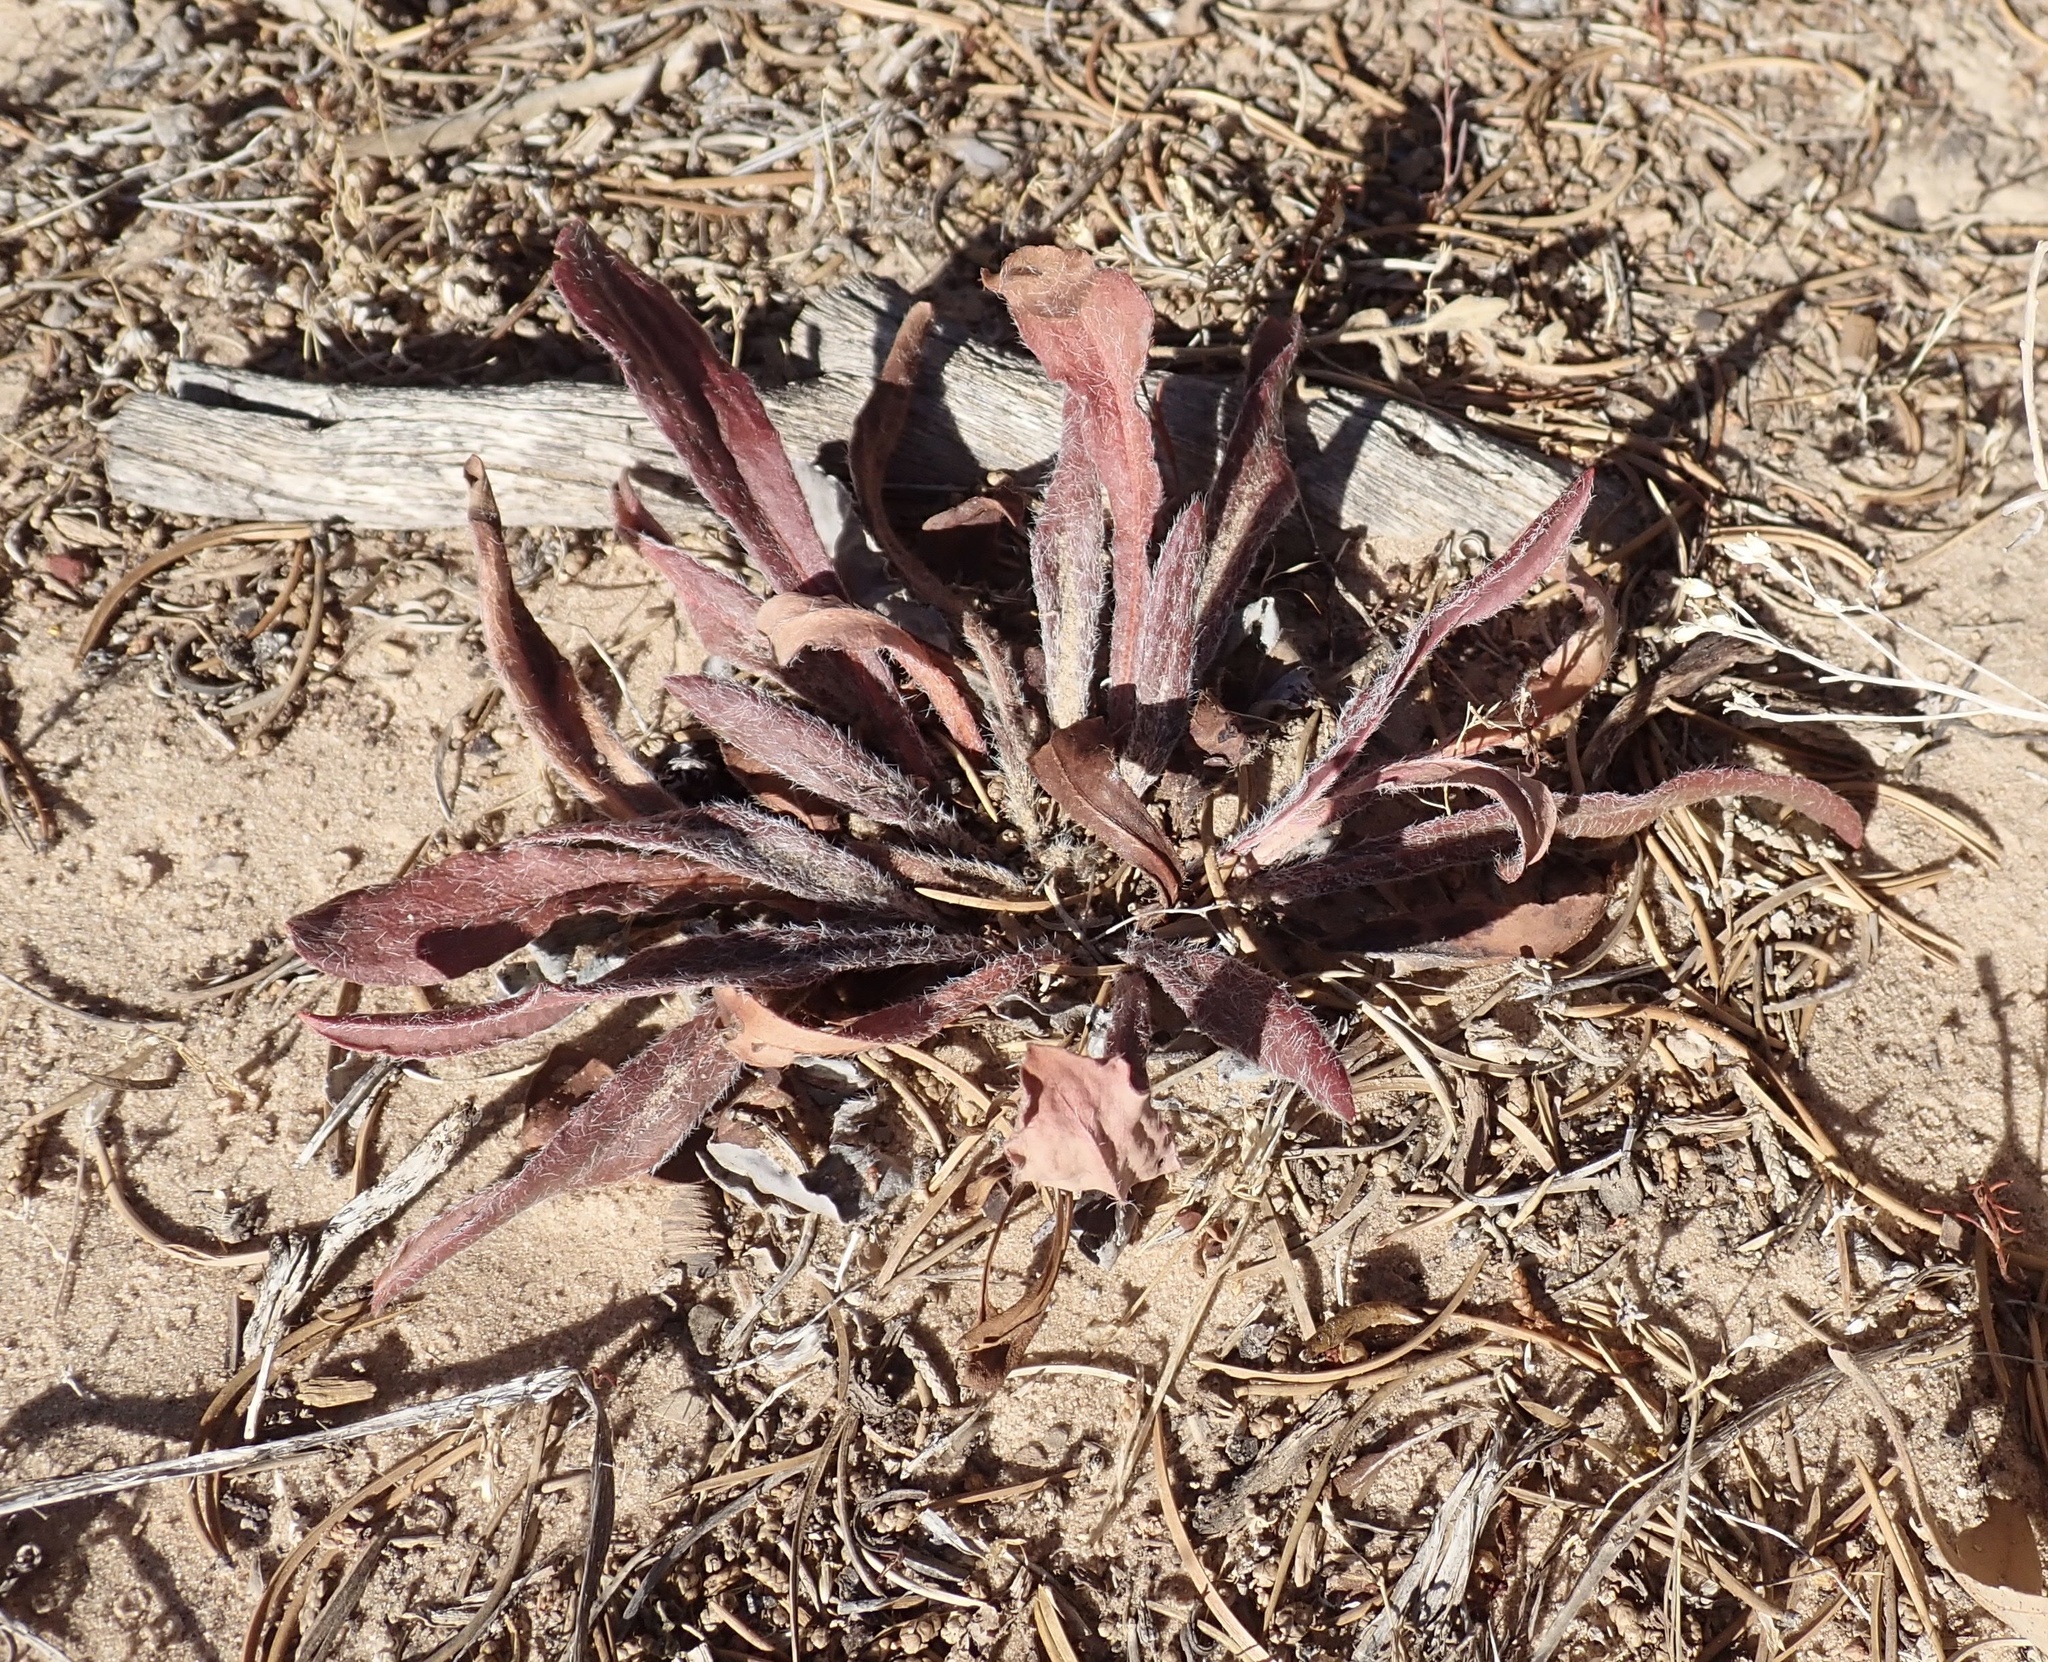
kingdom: Plantae
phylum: Tracheophyta
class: Magnoliopsida
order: Caryophyllales
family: Polygonaceae
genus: Eriogonum
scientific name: Eriogonum alatum
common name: Winged eriogonum
